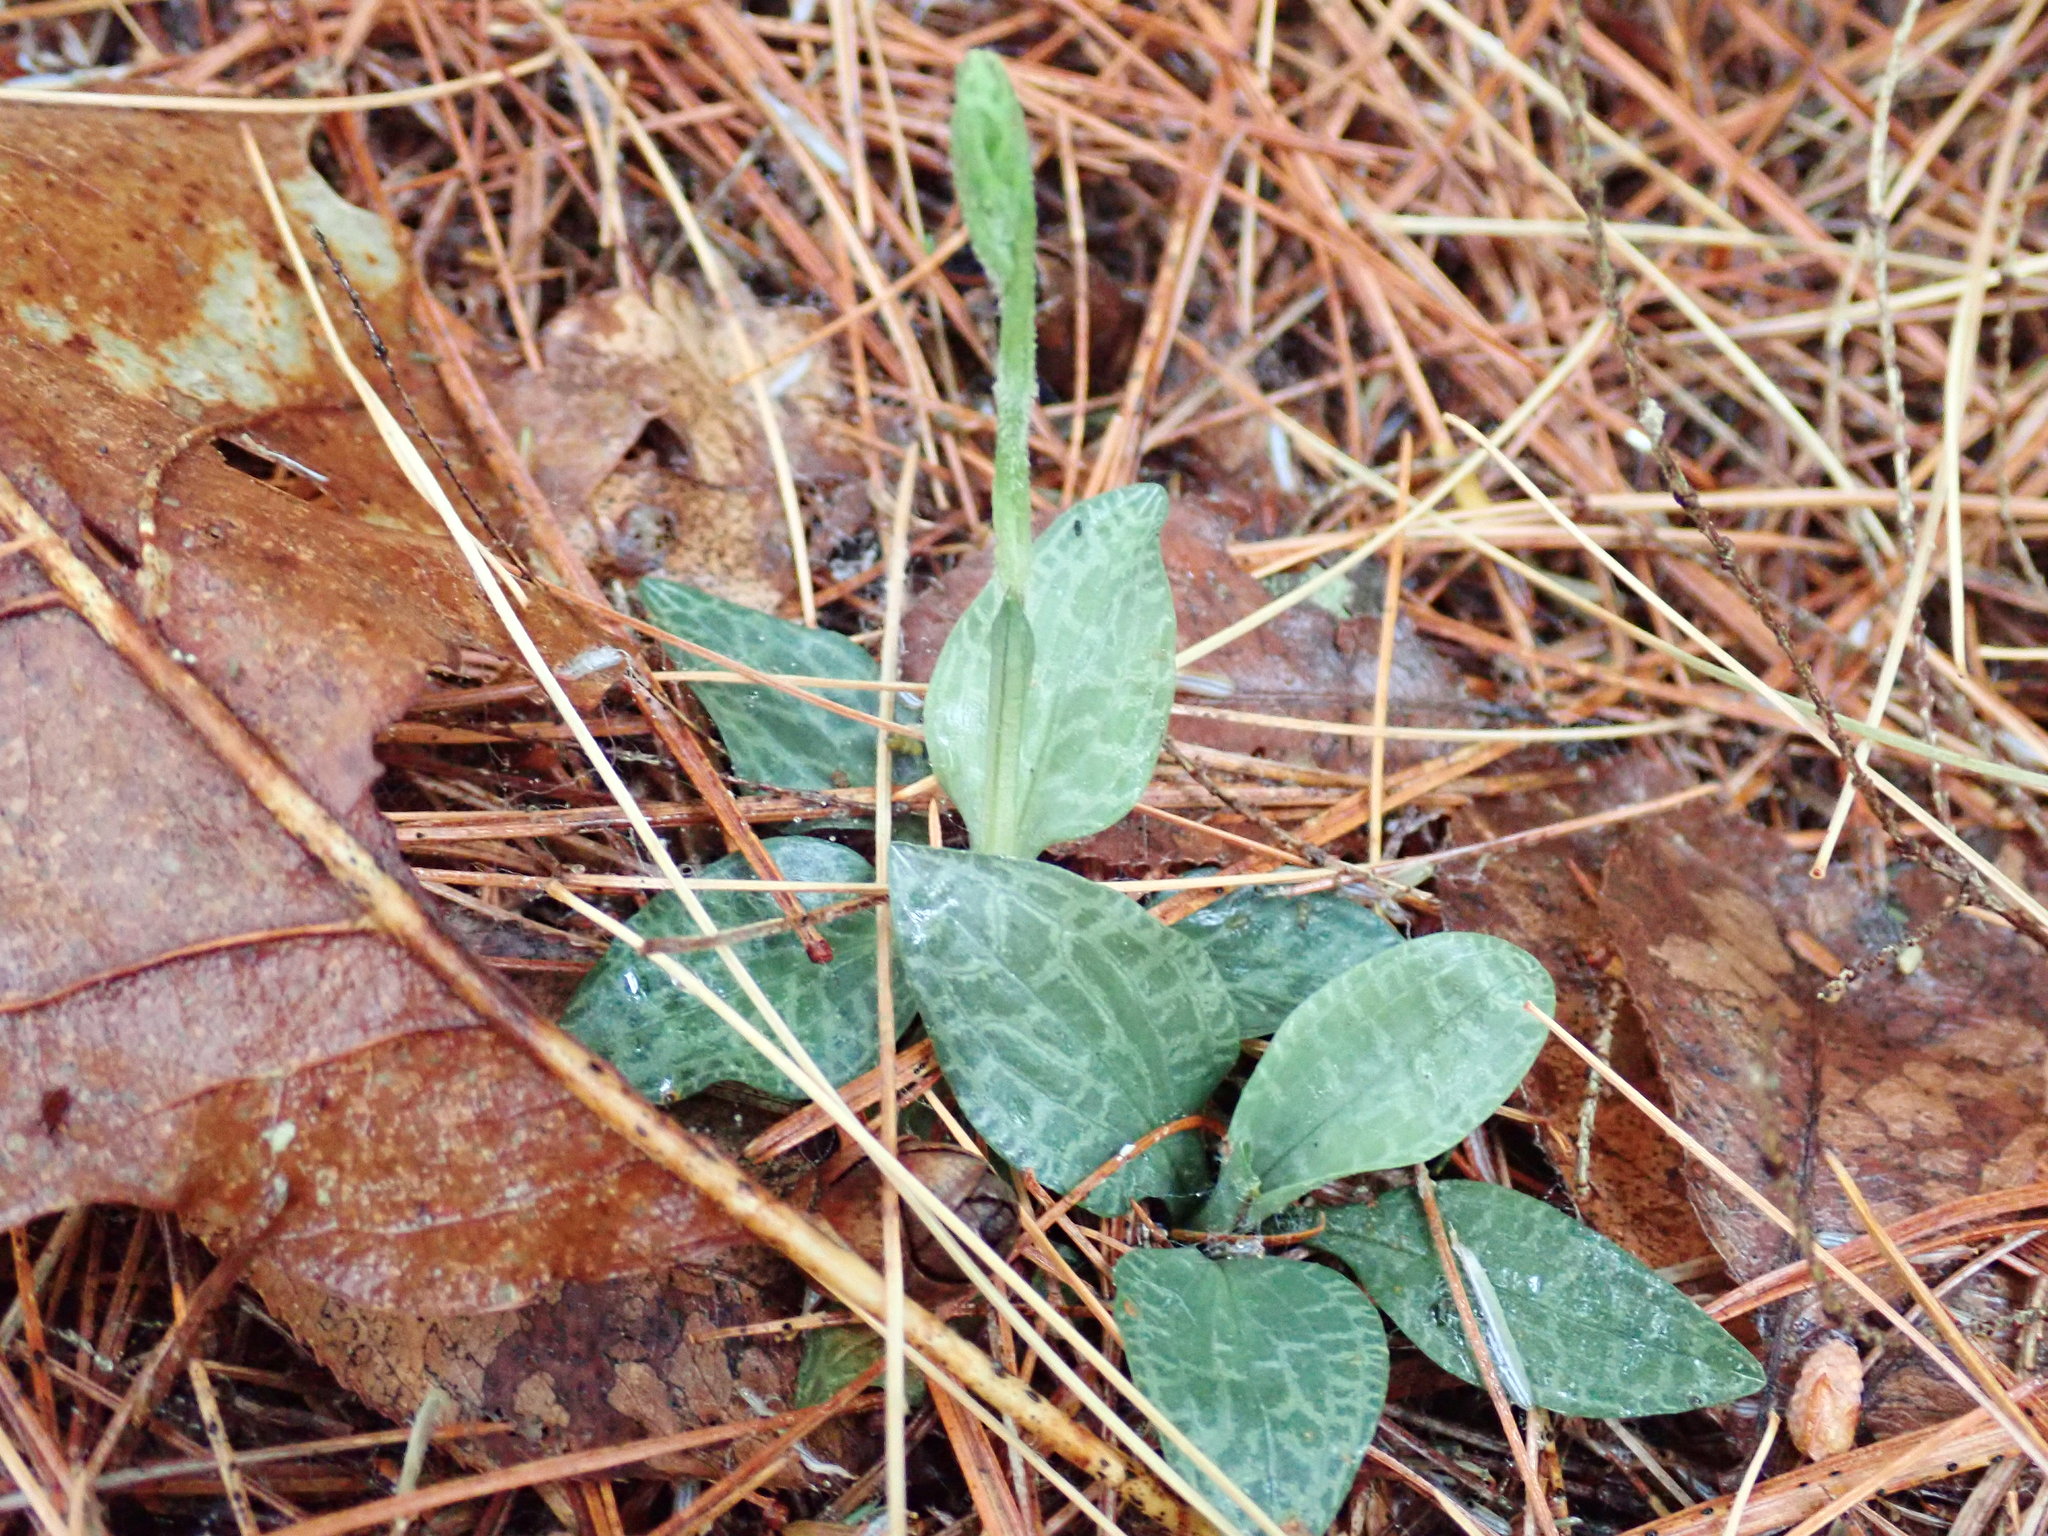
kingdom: Plantae
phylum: Tracheophyta
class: Liliopsida
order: Asparagales
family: Orchidaceae
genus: Goodyera
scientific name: Goodyera tesselata
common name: Checkered rattlesnake-plantain
